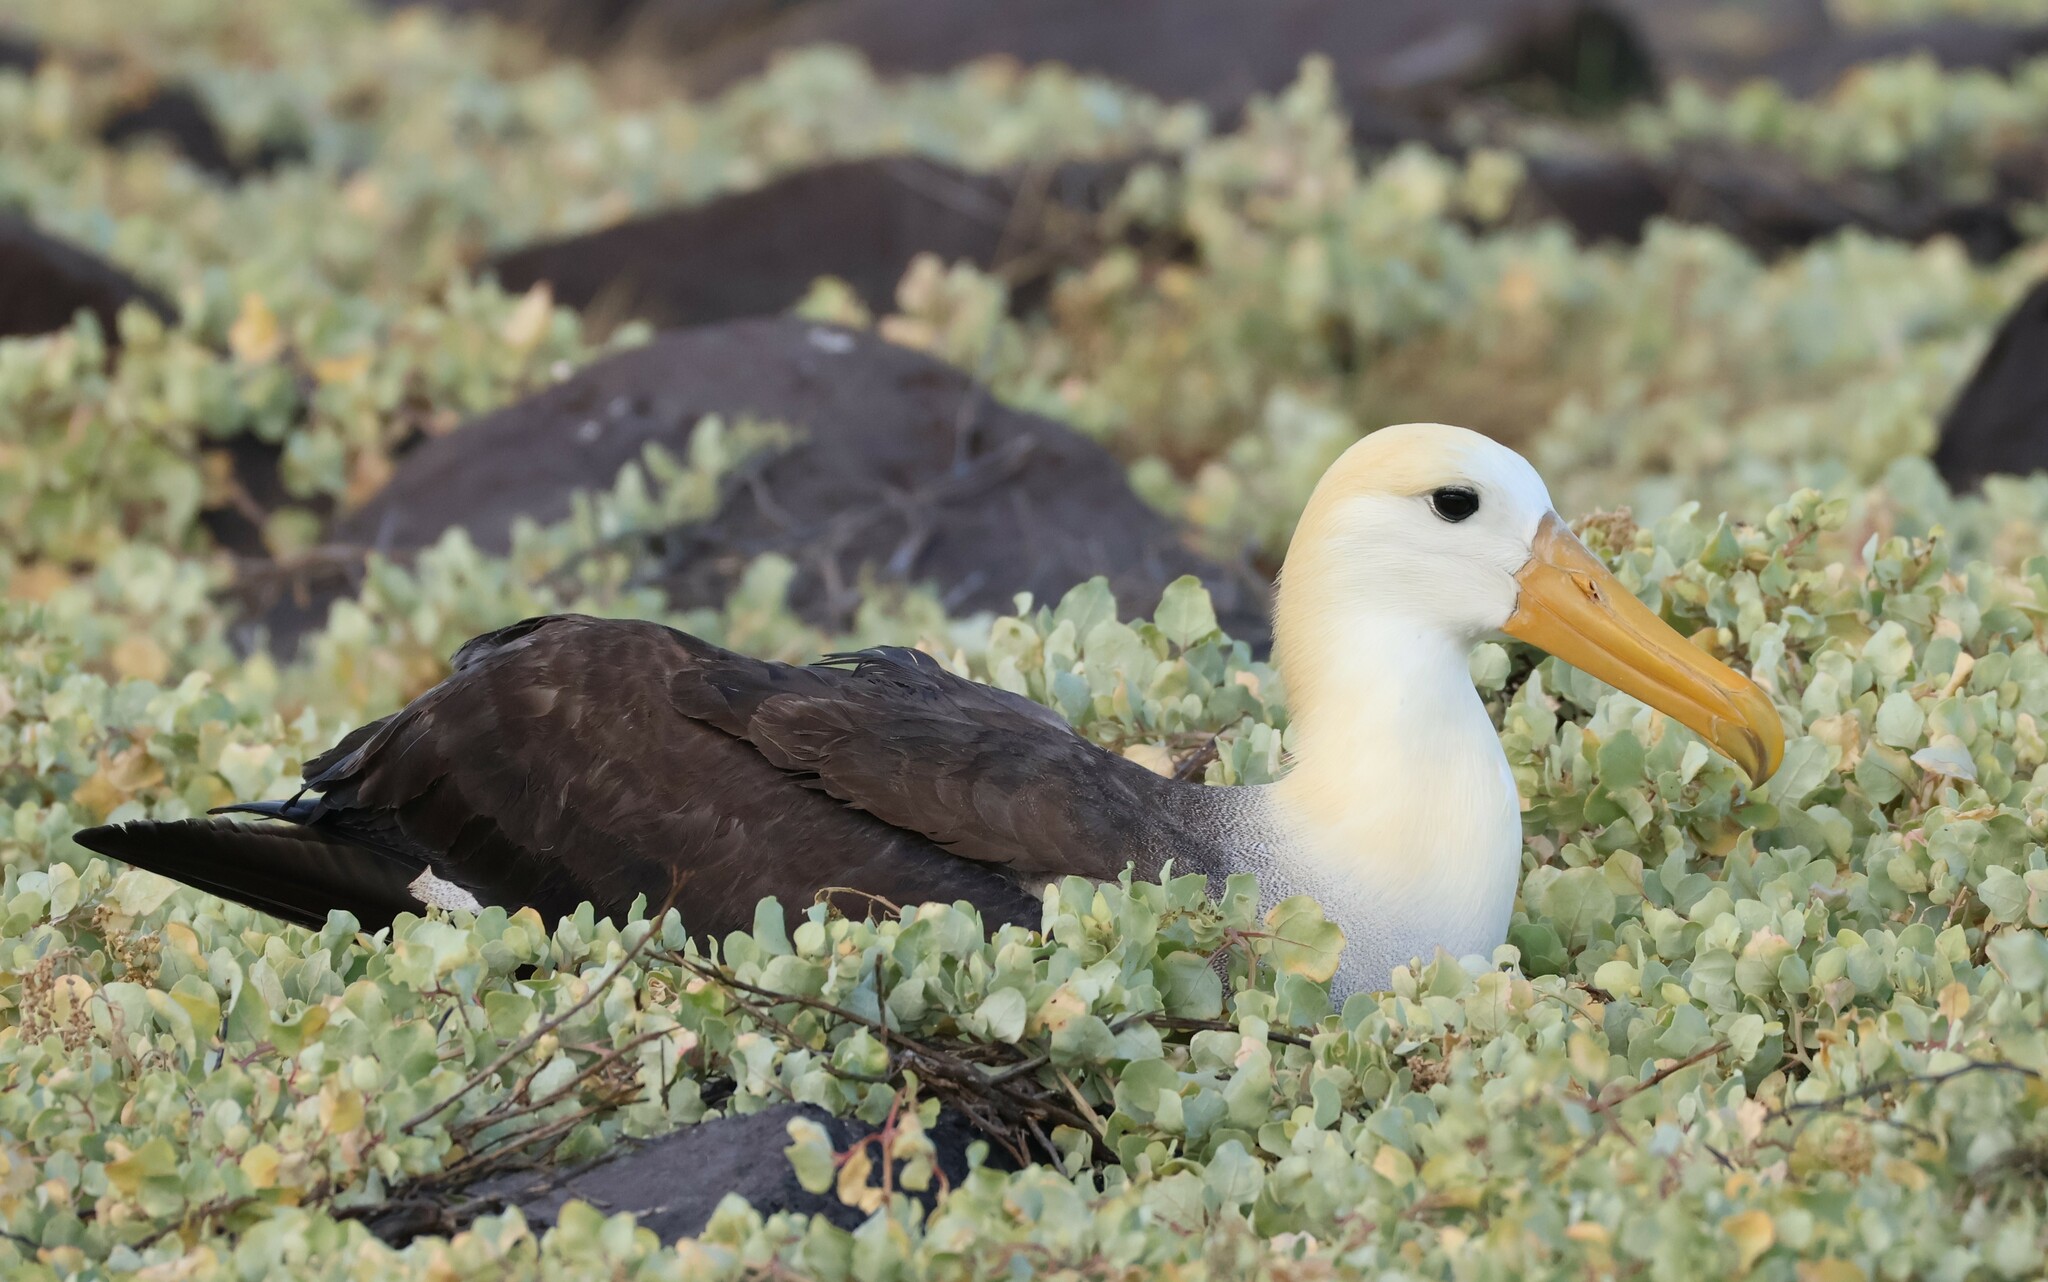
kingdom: Animalia
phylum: Chordata
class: Aves
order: Procellariiformes
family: Diomedeidae
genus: Phoebastria
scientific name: Phoebastria irrorata
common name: Waved albatross
